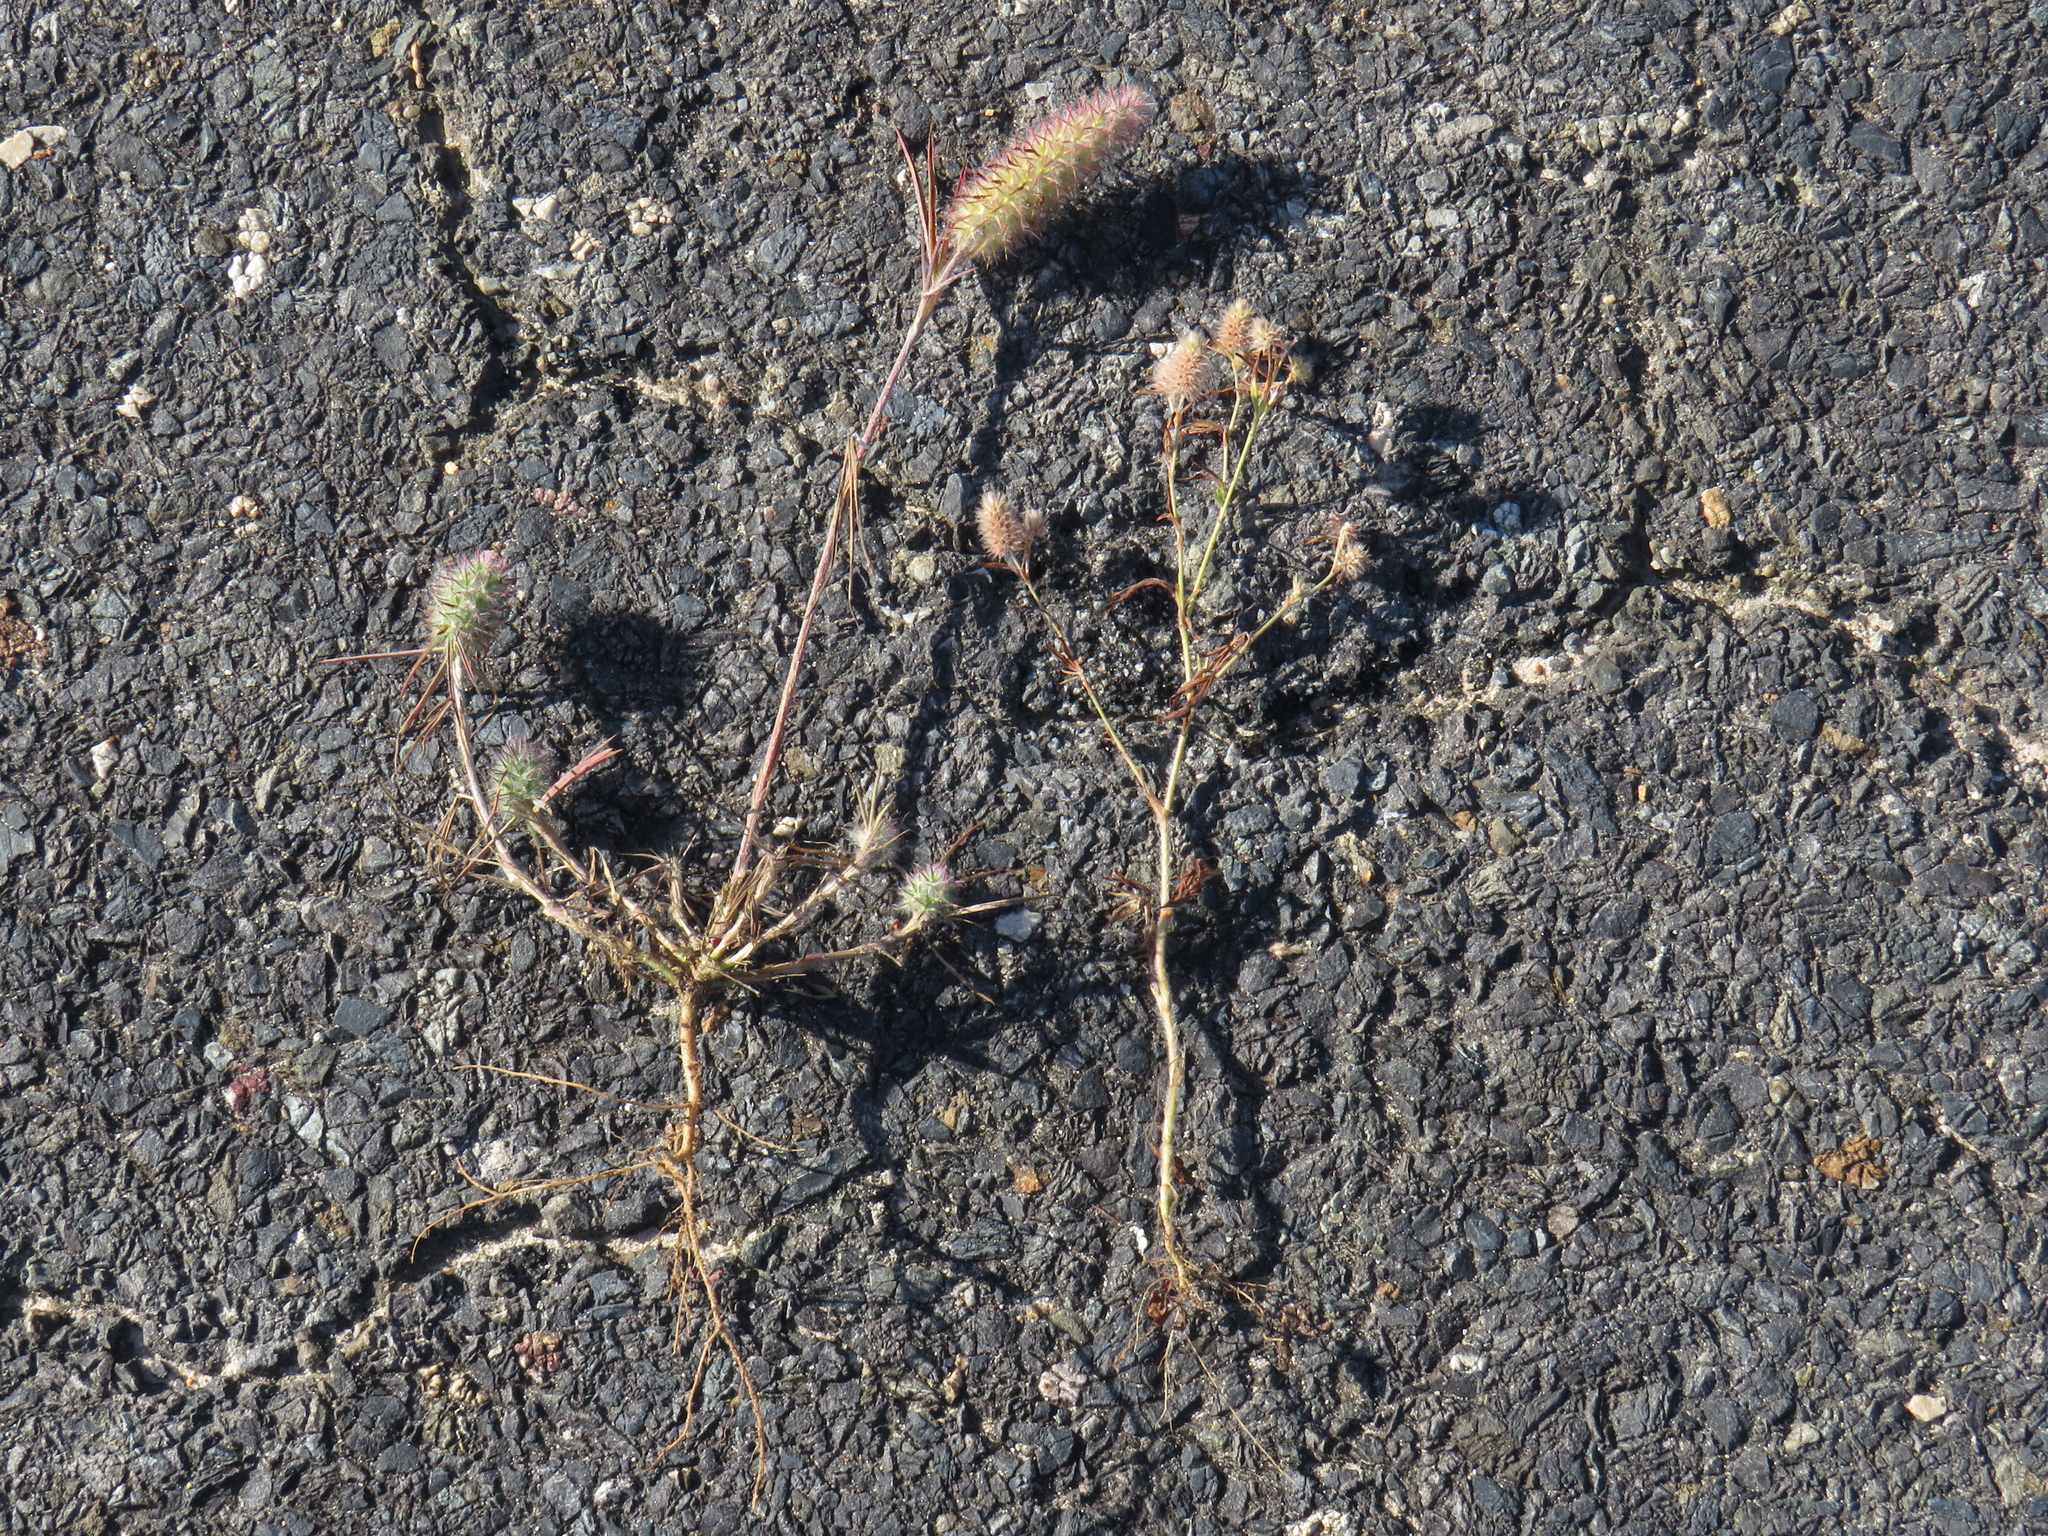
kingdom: Plantae
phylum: Tracheophyta
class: Magnoliopsida
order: Fabales
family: Fabaceae
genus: Trifolium
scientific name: Trifolium arvense
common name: Hare's-foot clover
